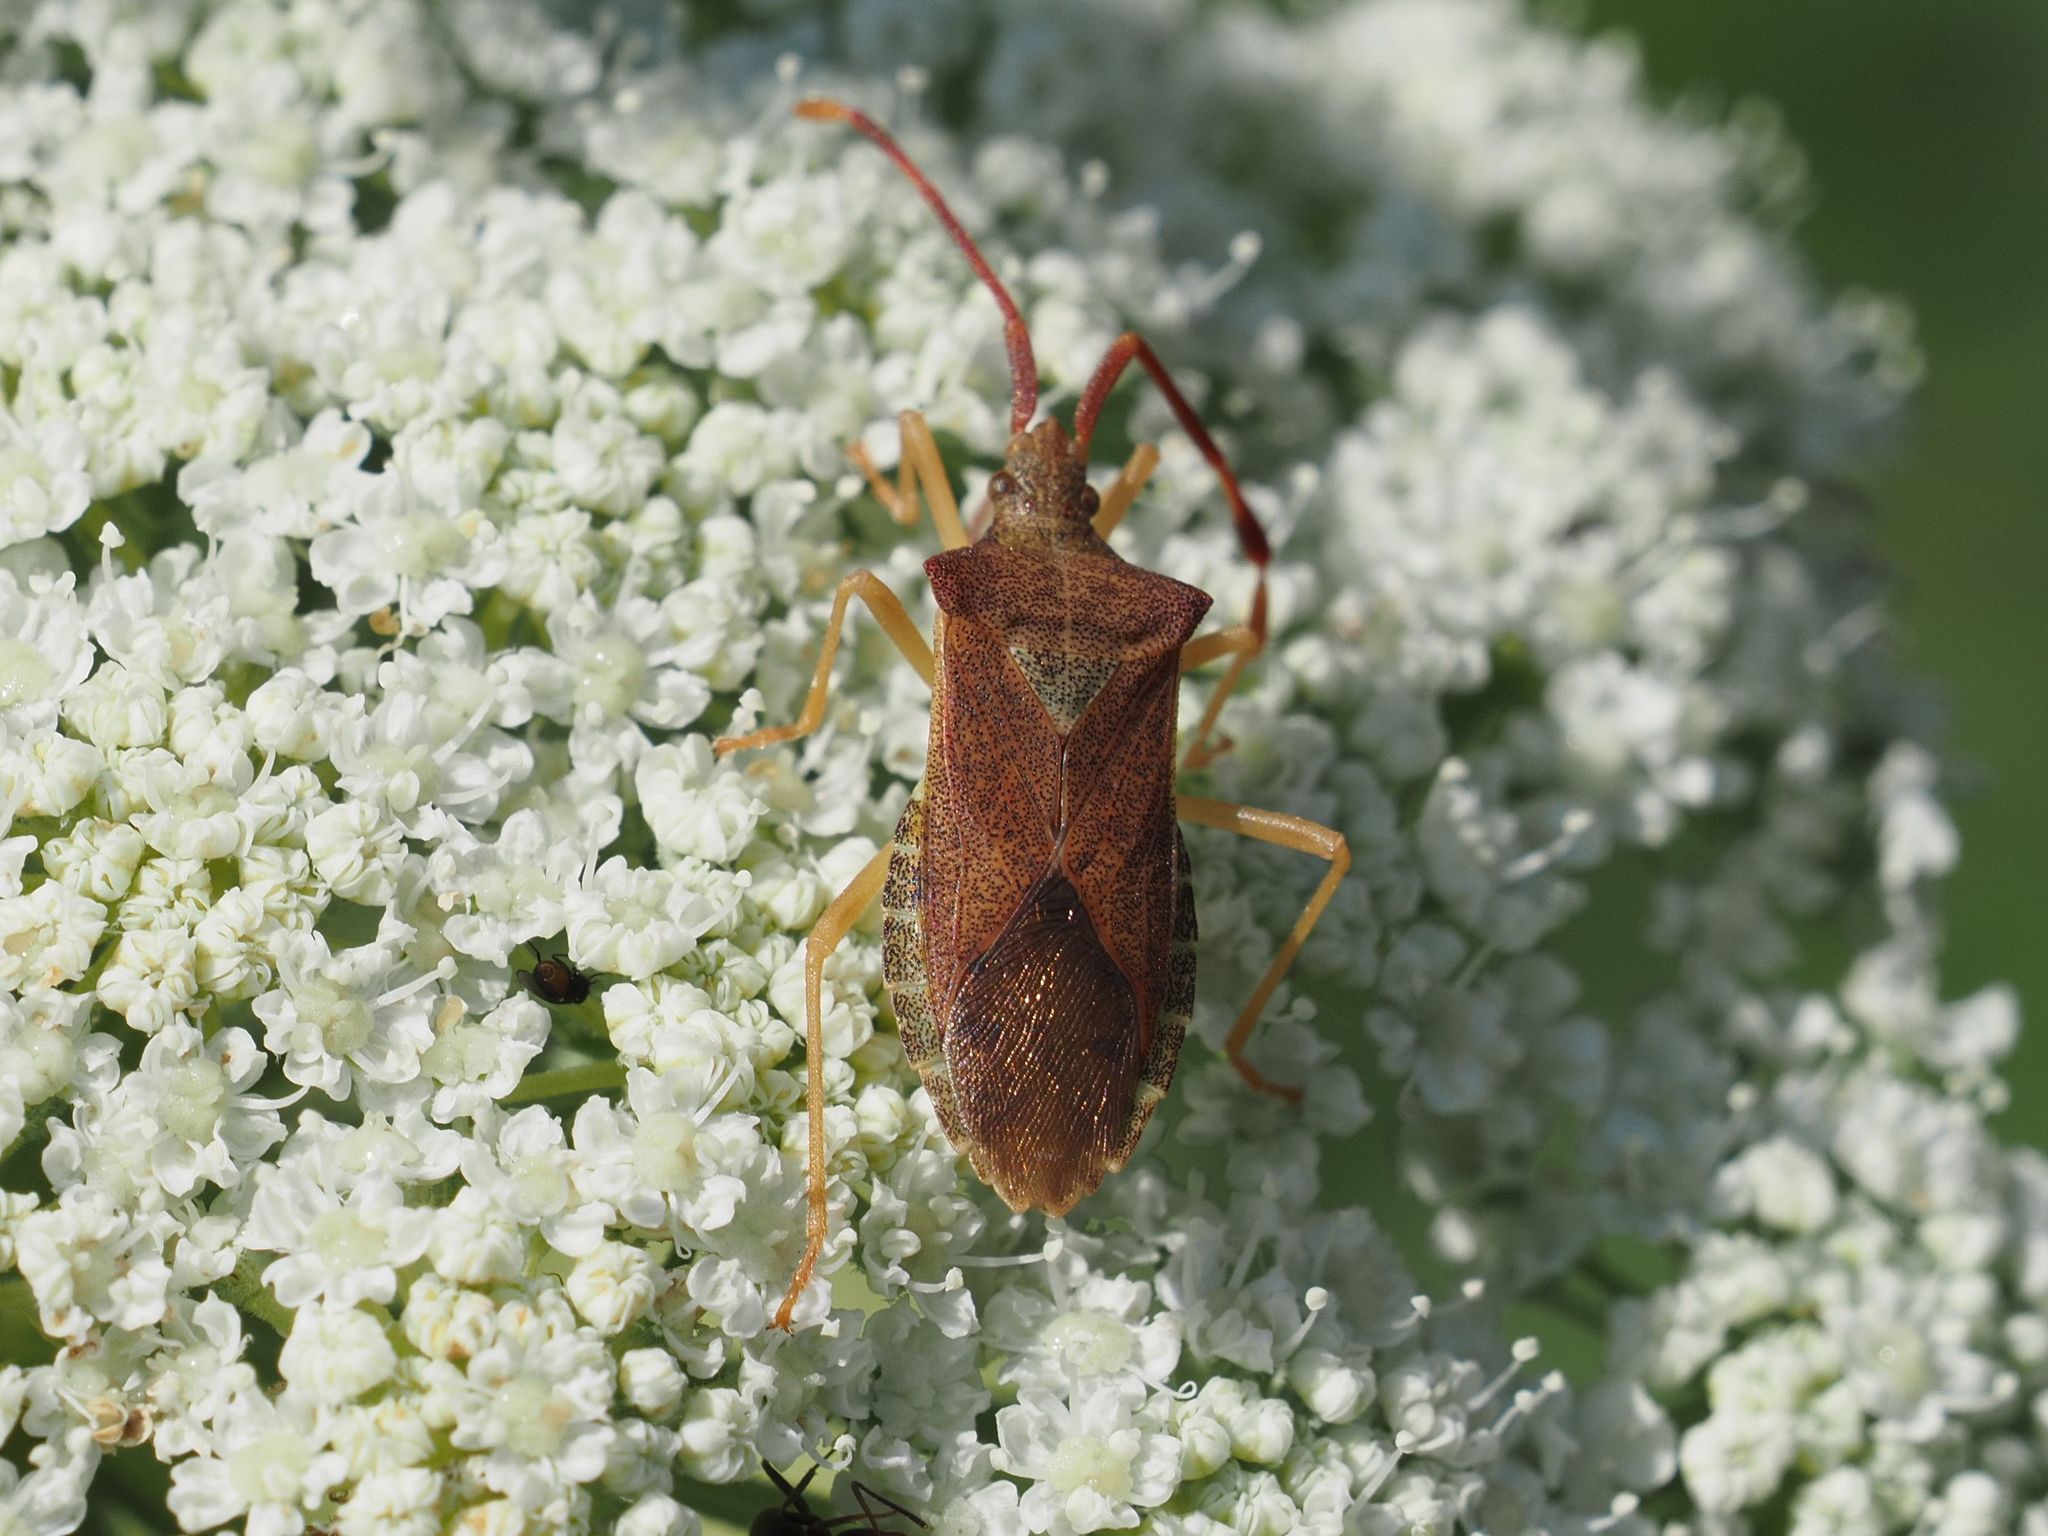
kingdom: Animalia
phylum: Arthropoda
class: Insecta
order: Hemiptera
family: Coreidae
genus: Gonocerus
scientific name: Gonocerus acuteangulatus
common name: Box bug
